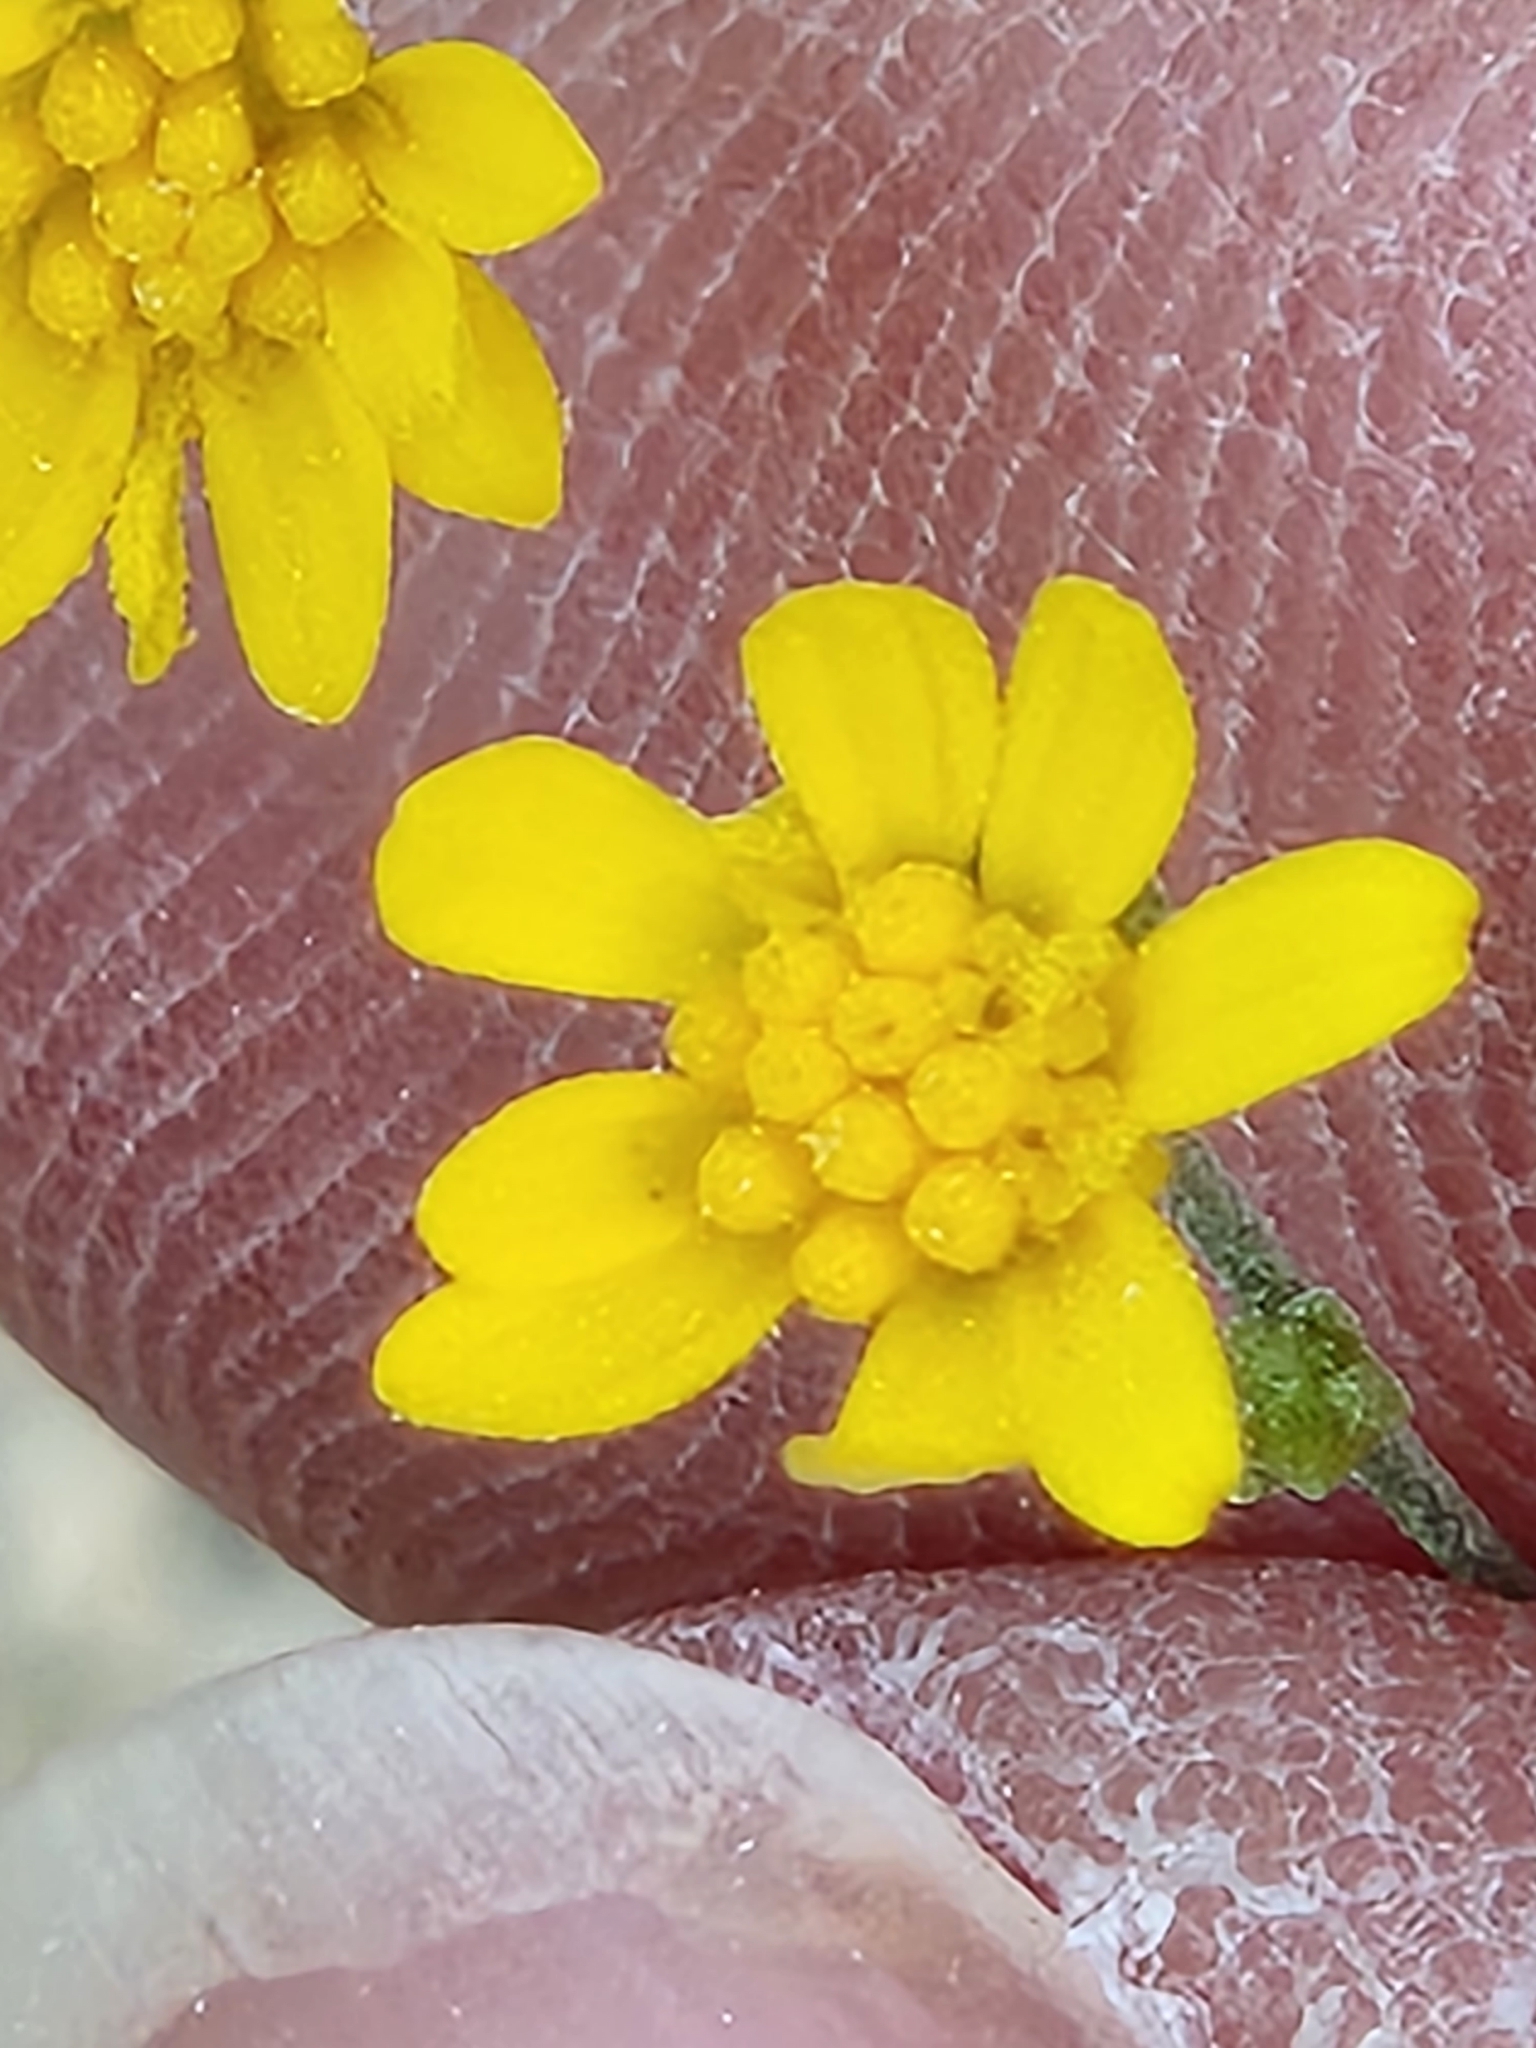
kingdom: Plantae
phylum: Tracheophyta
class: Magnoliopsida
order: Asterales
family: Asteraceae
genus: Gutierrezia
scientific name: Gutierrezia texana
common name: Texas snakeweed
